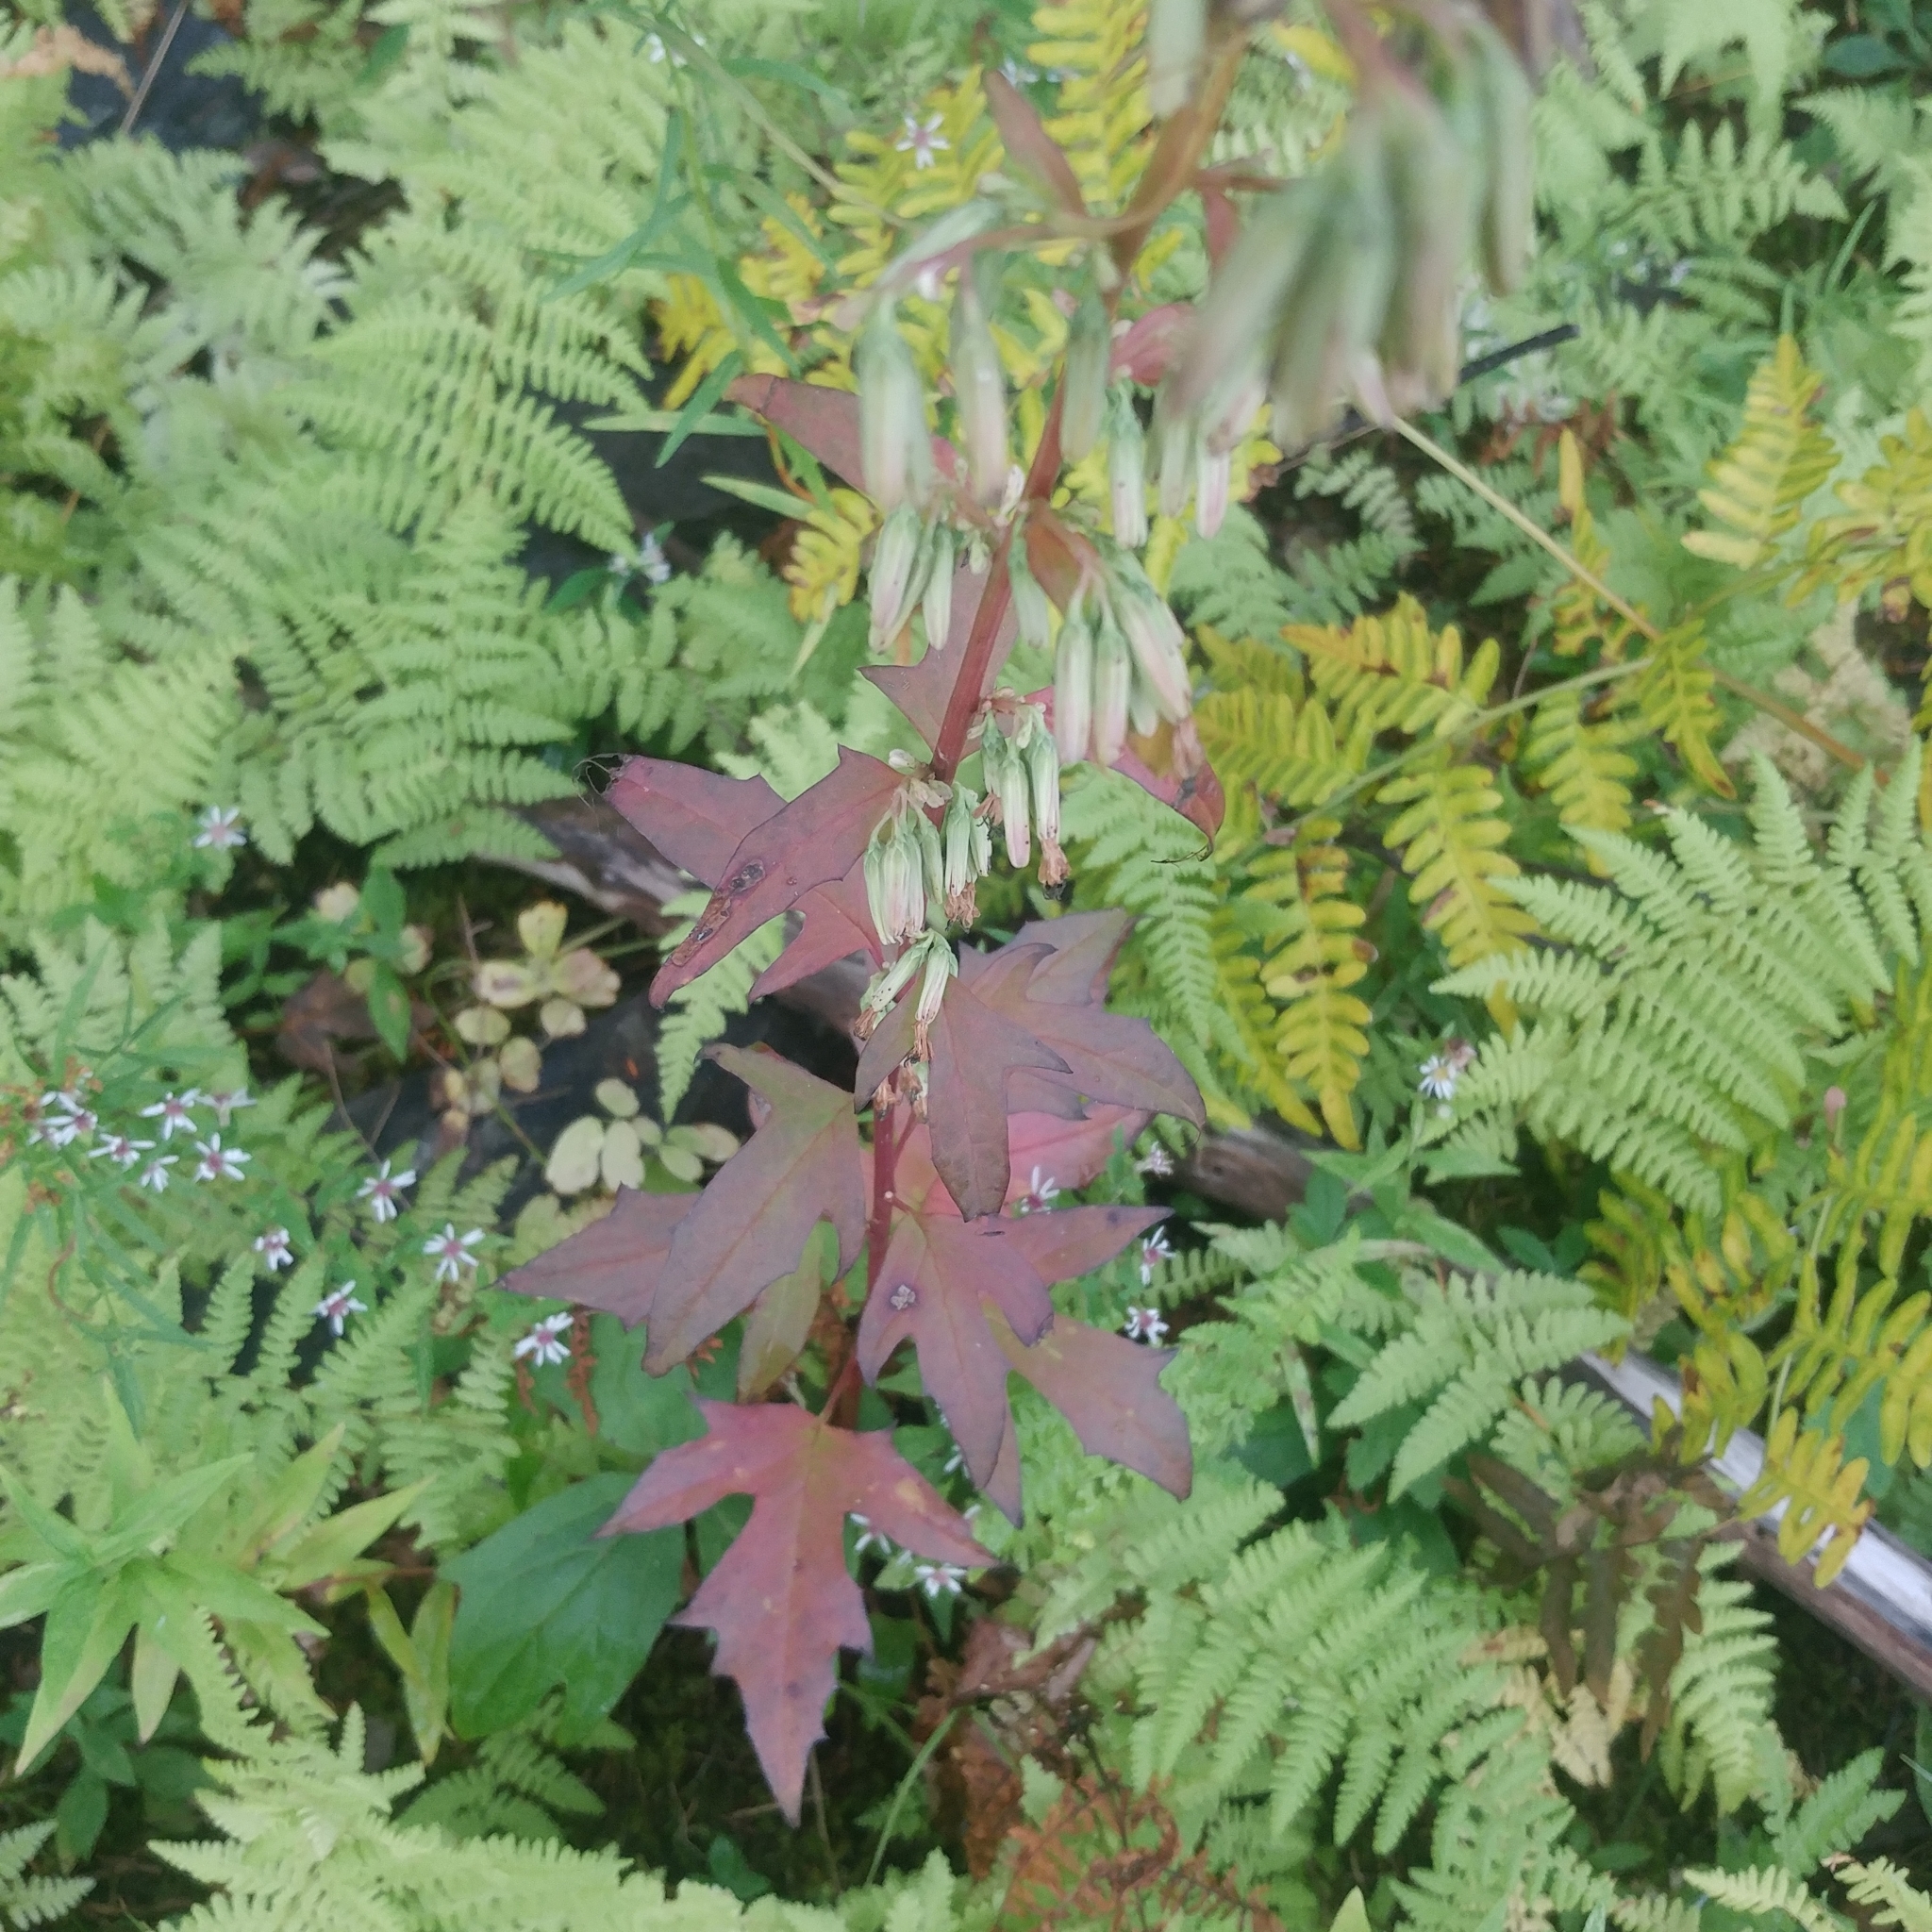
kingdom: Plantae
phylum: Tracheophyta
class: Magnoliopsida
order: Asterales
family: Asteraceae
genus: Nabalus
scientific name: Nabalus trifoliolatus
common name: Gall-of-the-earth
